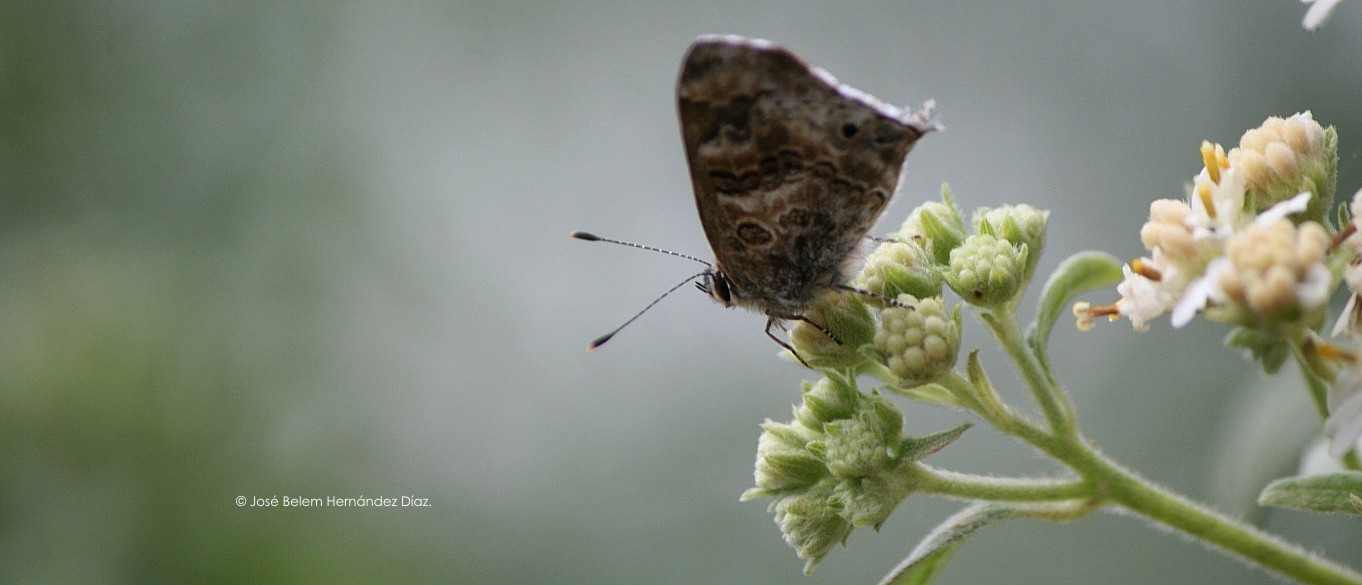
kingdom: Animalia
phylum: Arthropoda
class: Insecta
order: Lepidoptera
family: Lycaenidae
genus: Thecla
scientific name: Thecla cestri
